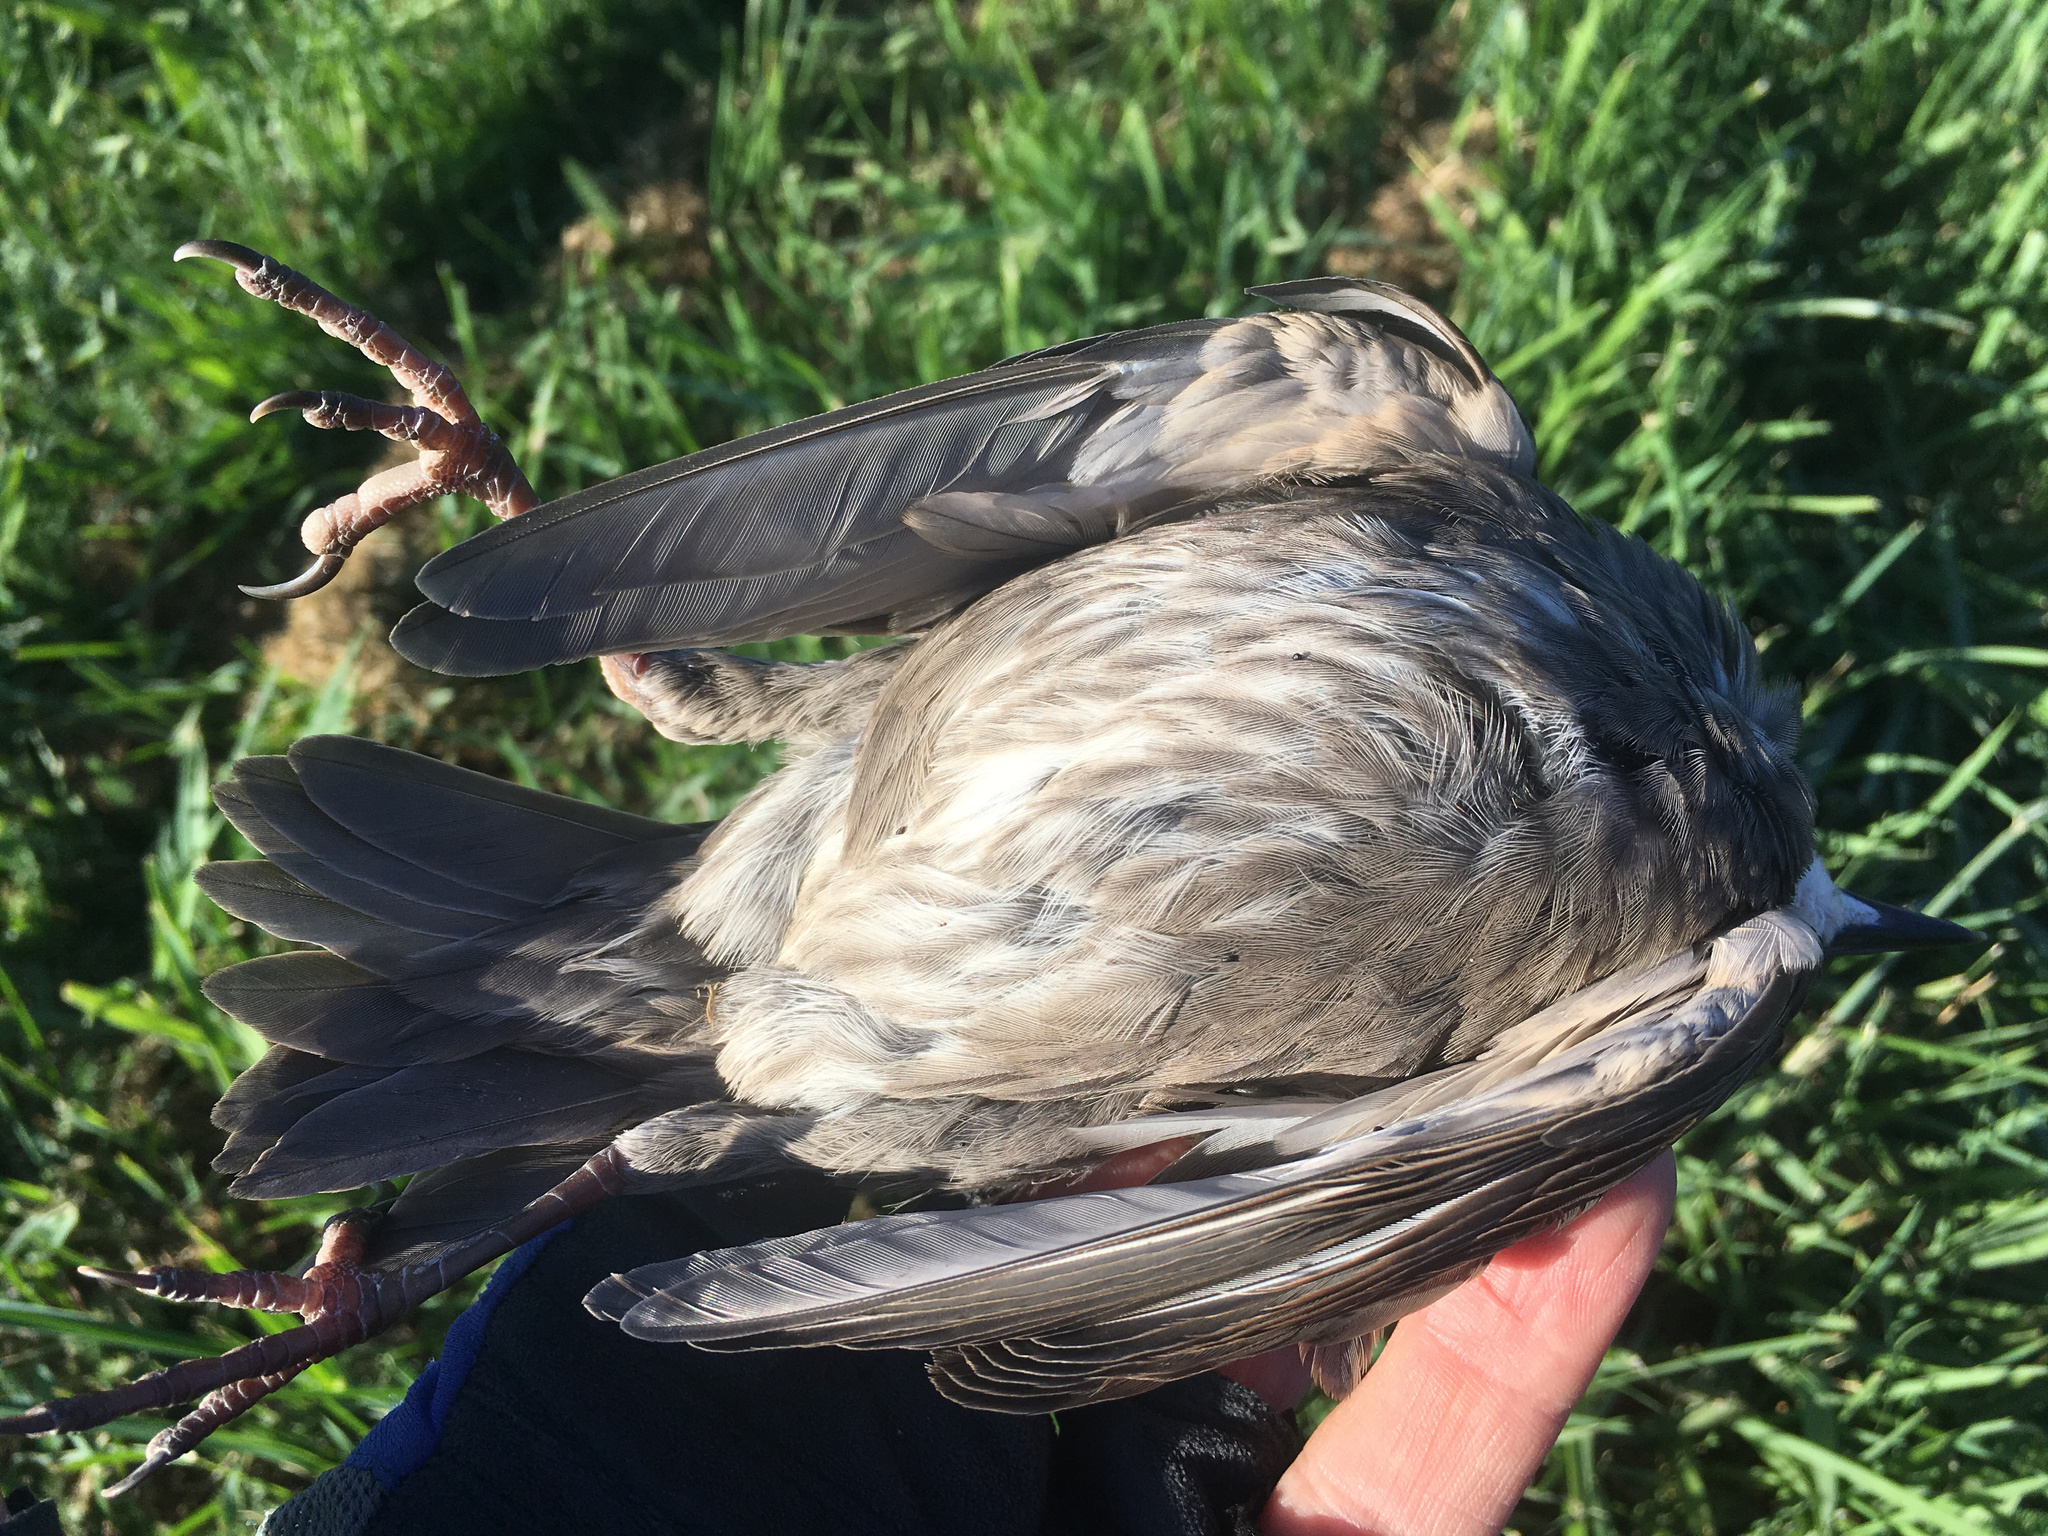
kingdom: Animalia
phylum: Chordata
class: Aves
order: Passeriformes
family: Sturnidae
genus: Sturnus
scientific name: Sturnus vulgaris
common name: Common starling
